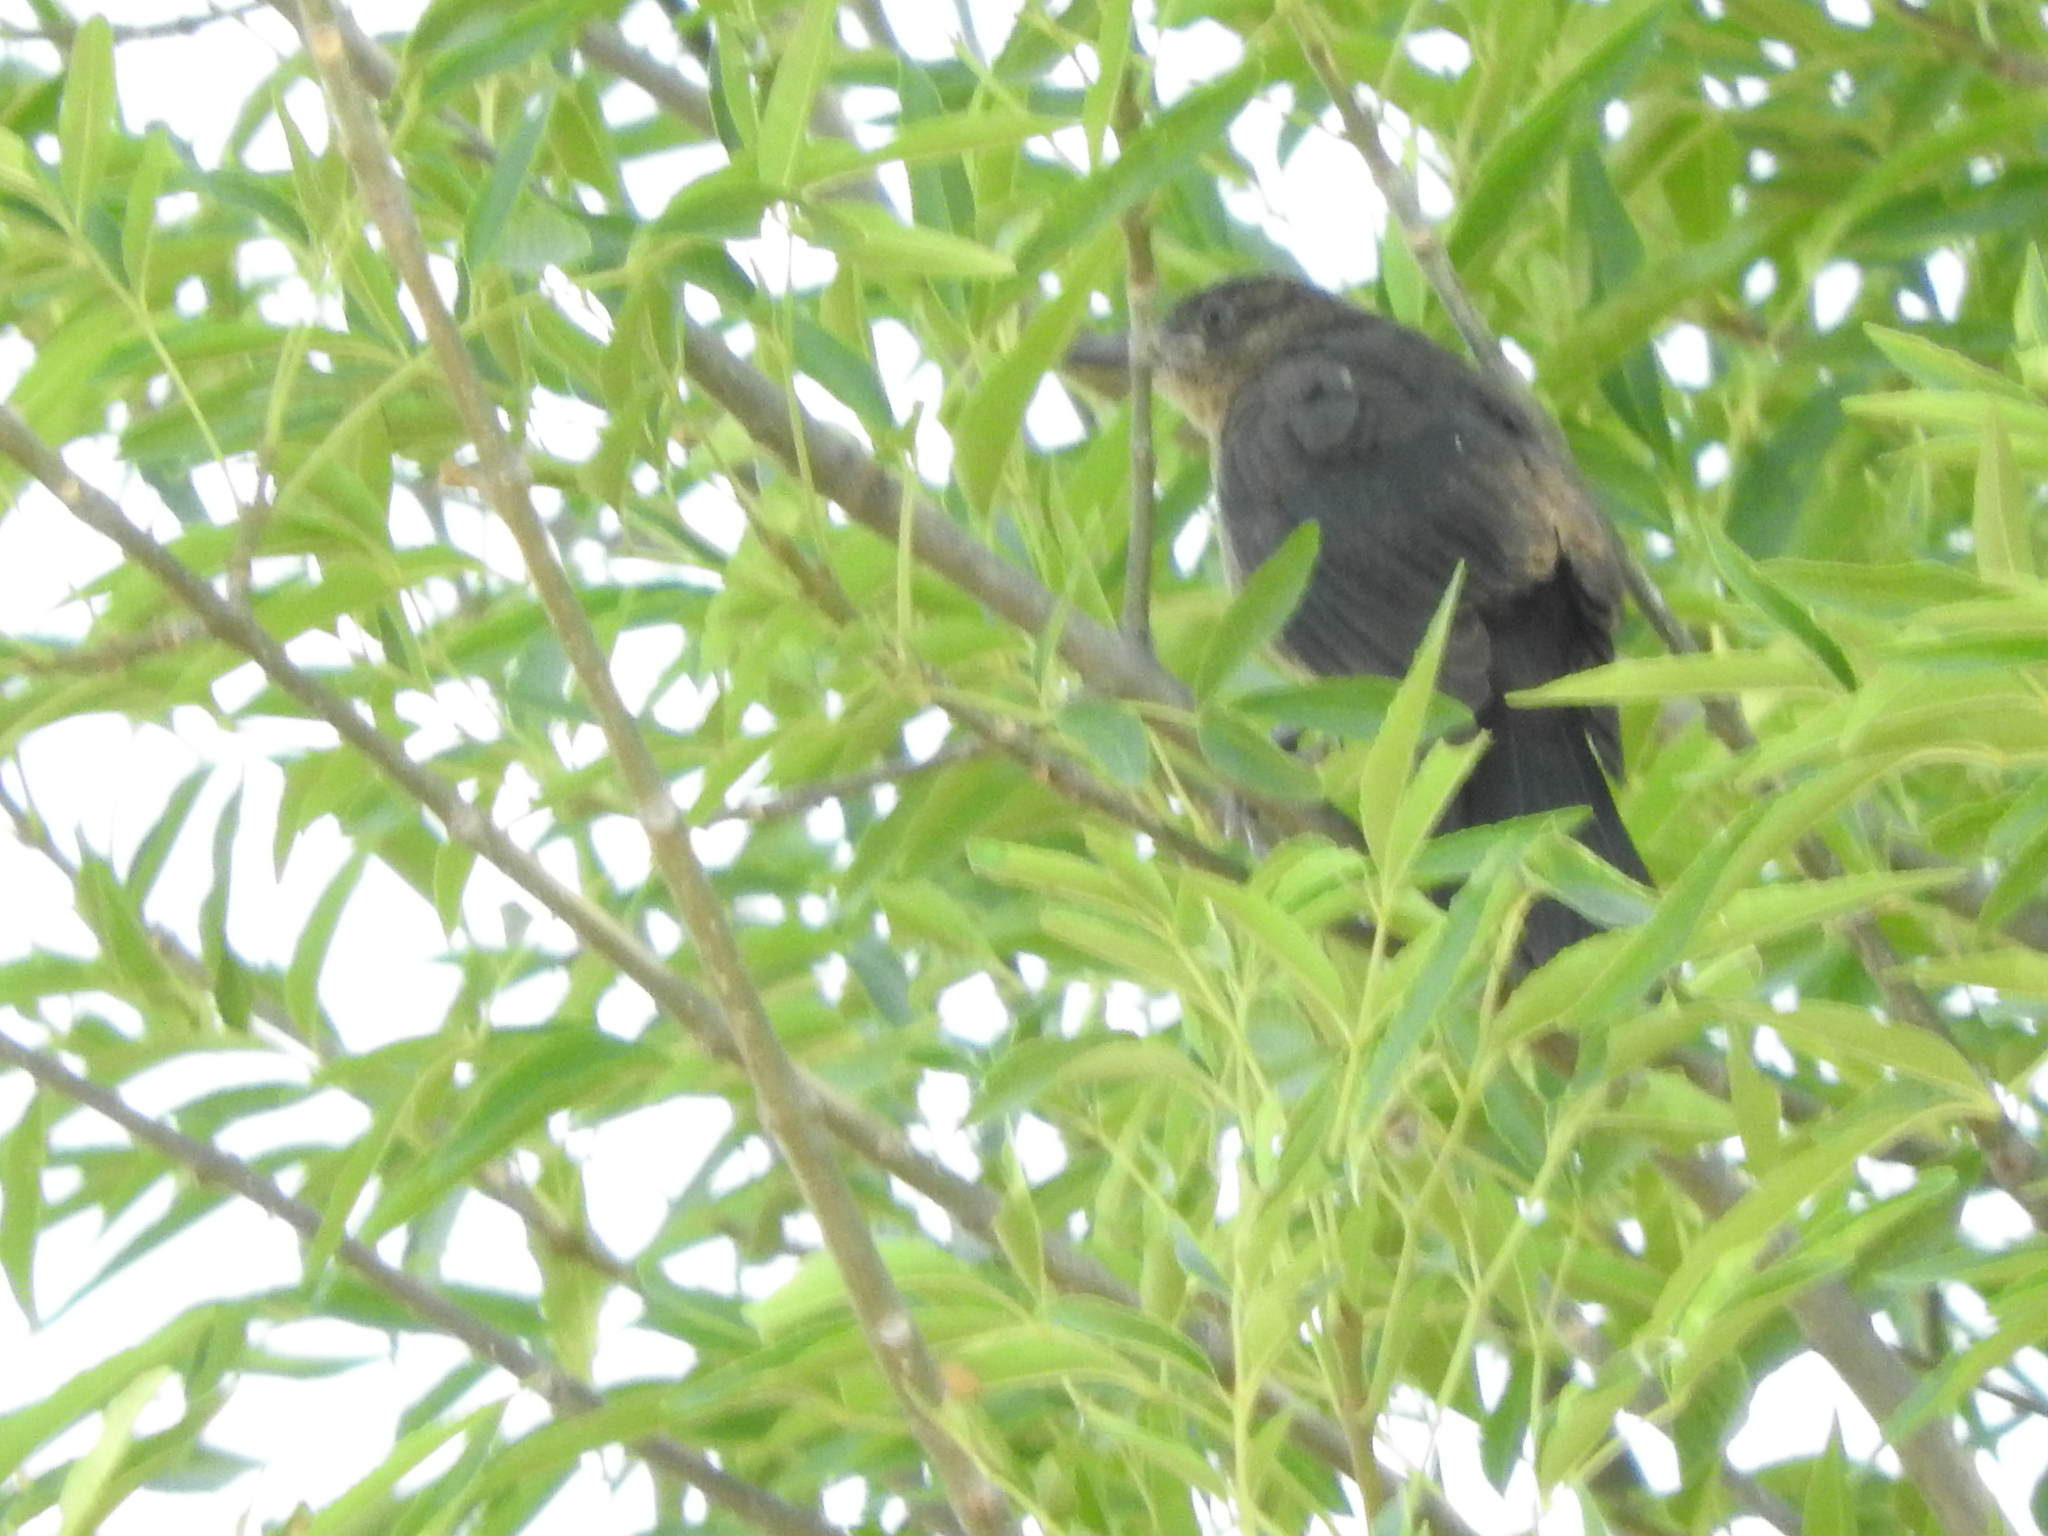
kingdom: Animalia
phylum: Chordata
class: Aves
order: Passeriformes
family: Icteridae
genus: Quiscalus
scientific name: Quiscalus mexicanus
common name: Great-tailed grackle
